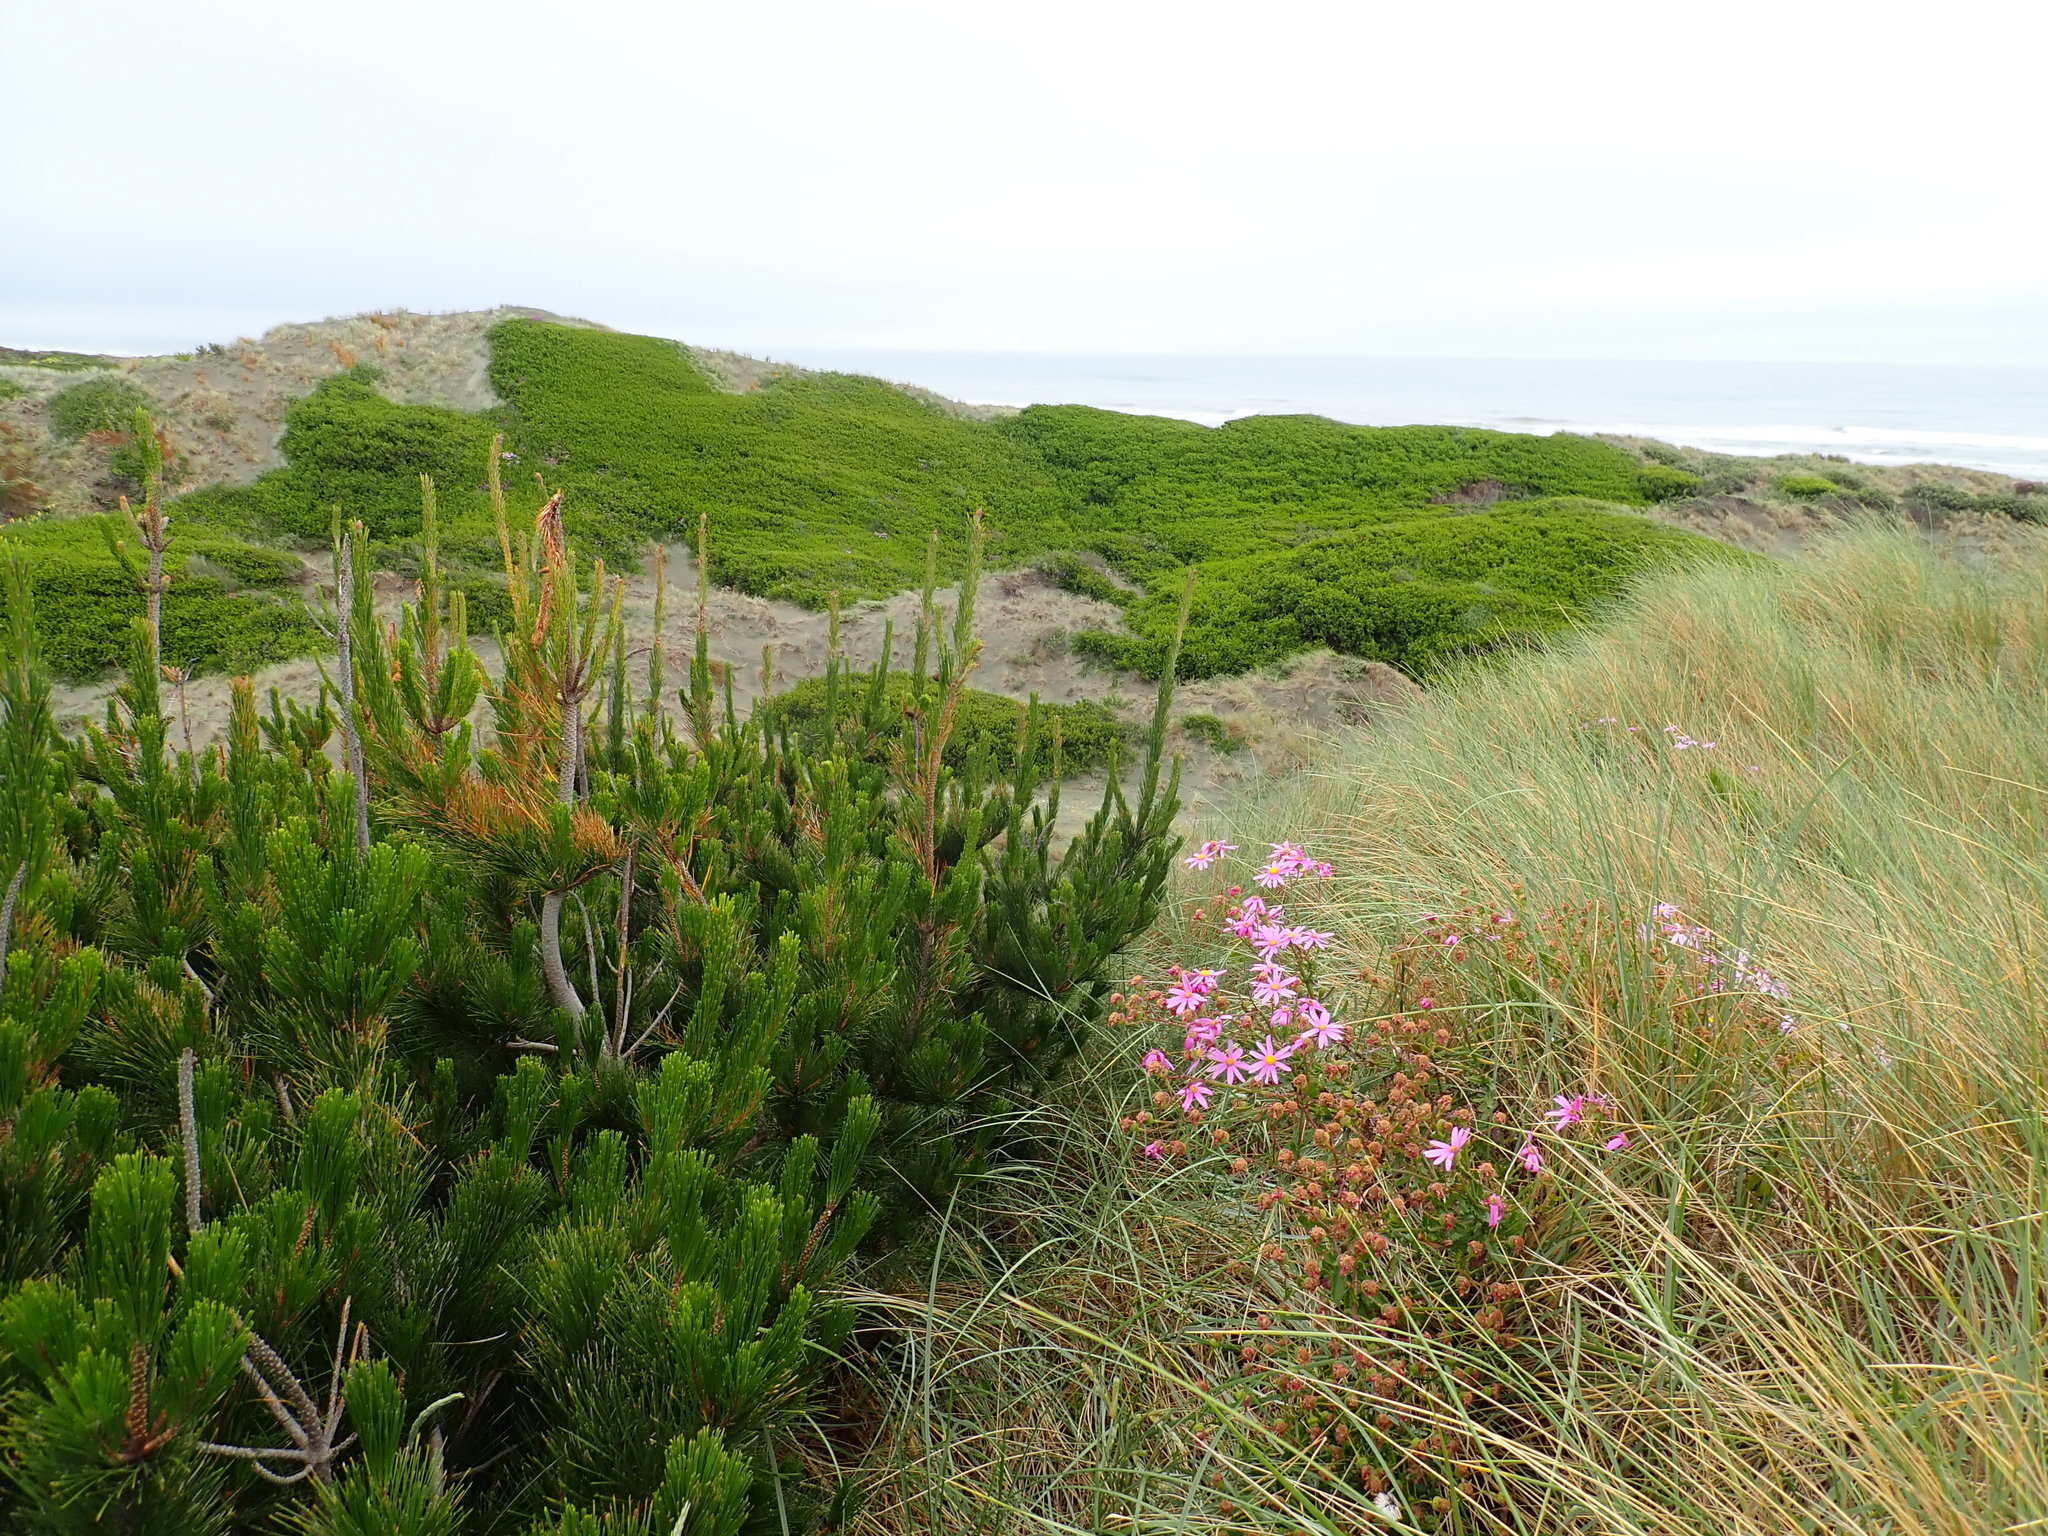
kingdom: Plantae
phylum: Tracheophyta
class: Pinopsida
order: Pinales
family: Pinaceae
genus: Pinus
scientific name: Pinus radiata
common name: Monterey pine
